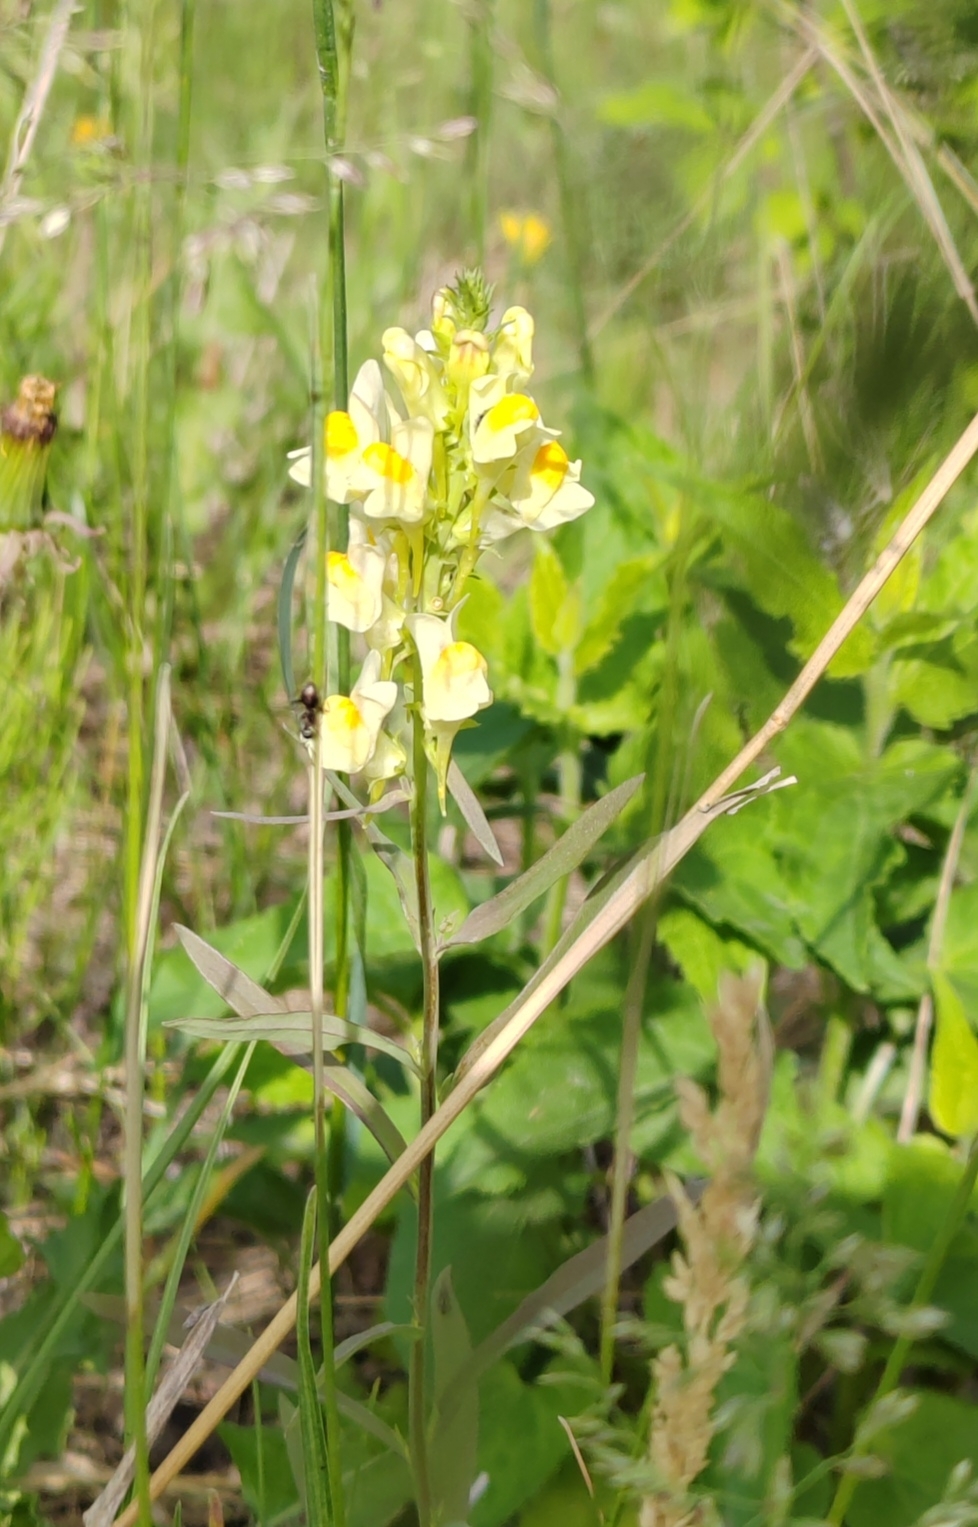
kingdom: Plantae
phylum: Tracheophyta
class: Magnoliopsida
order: Lamiales
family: Plantaginaceae
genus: Linaria
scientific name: Linaria vulgaris
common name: Butter and eggs
